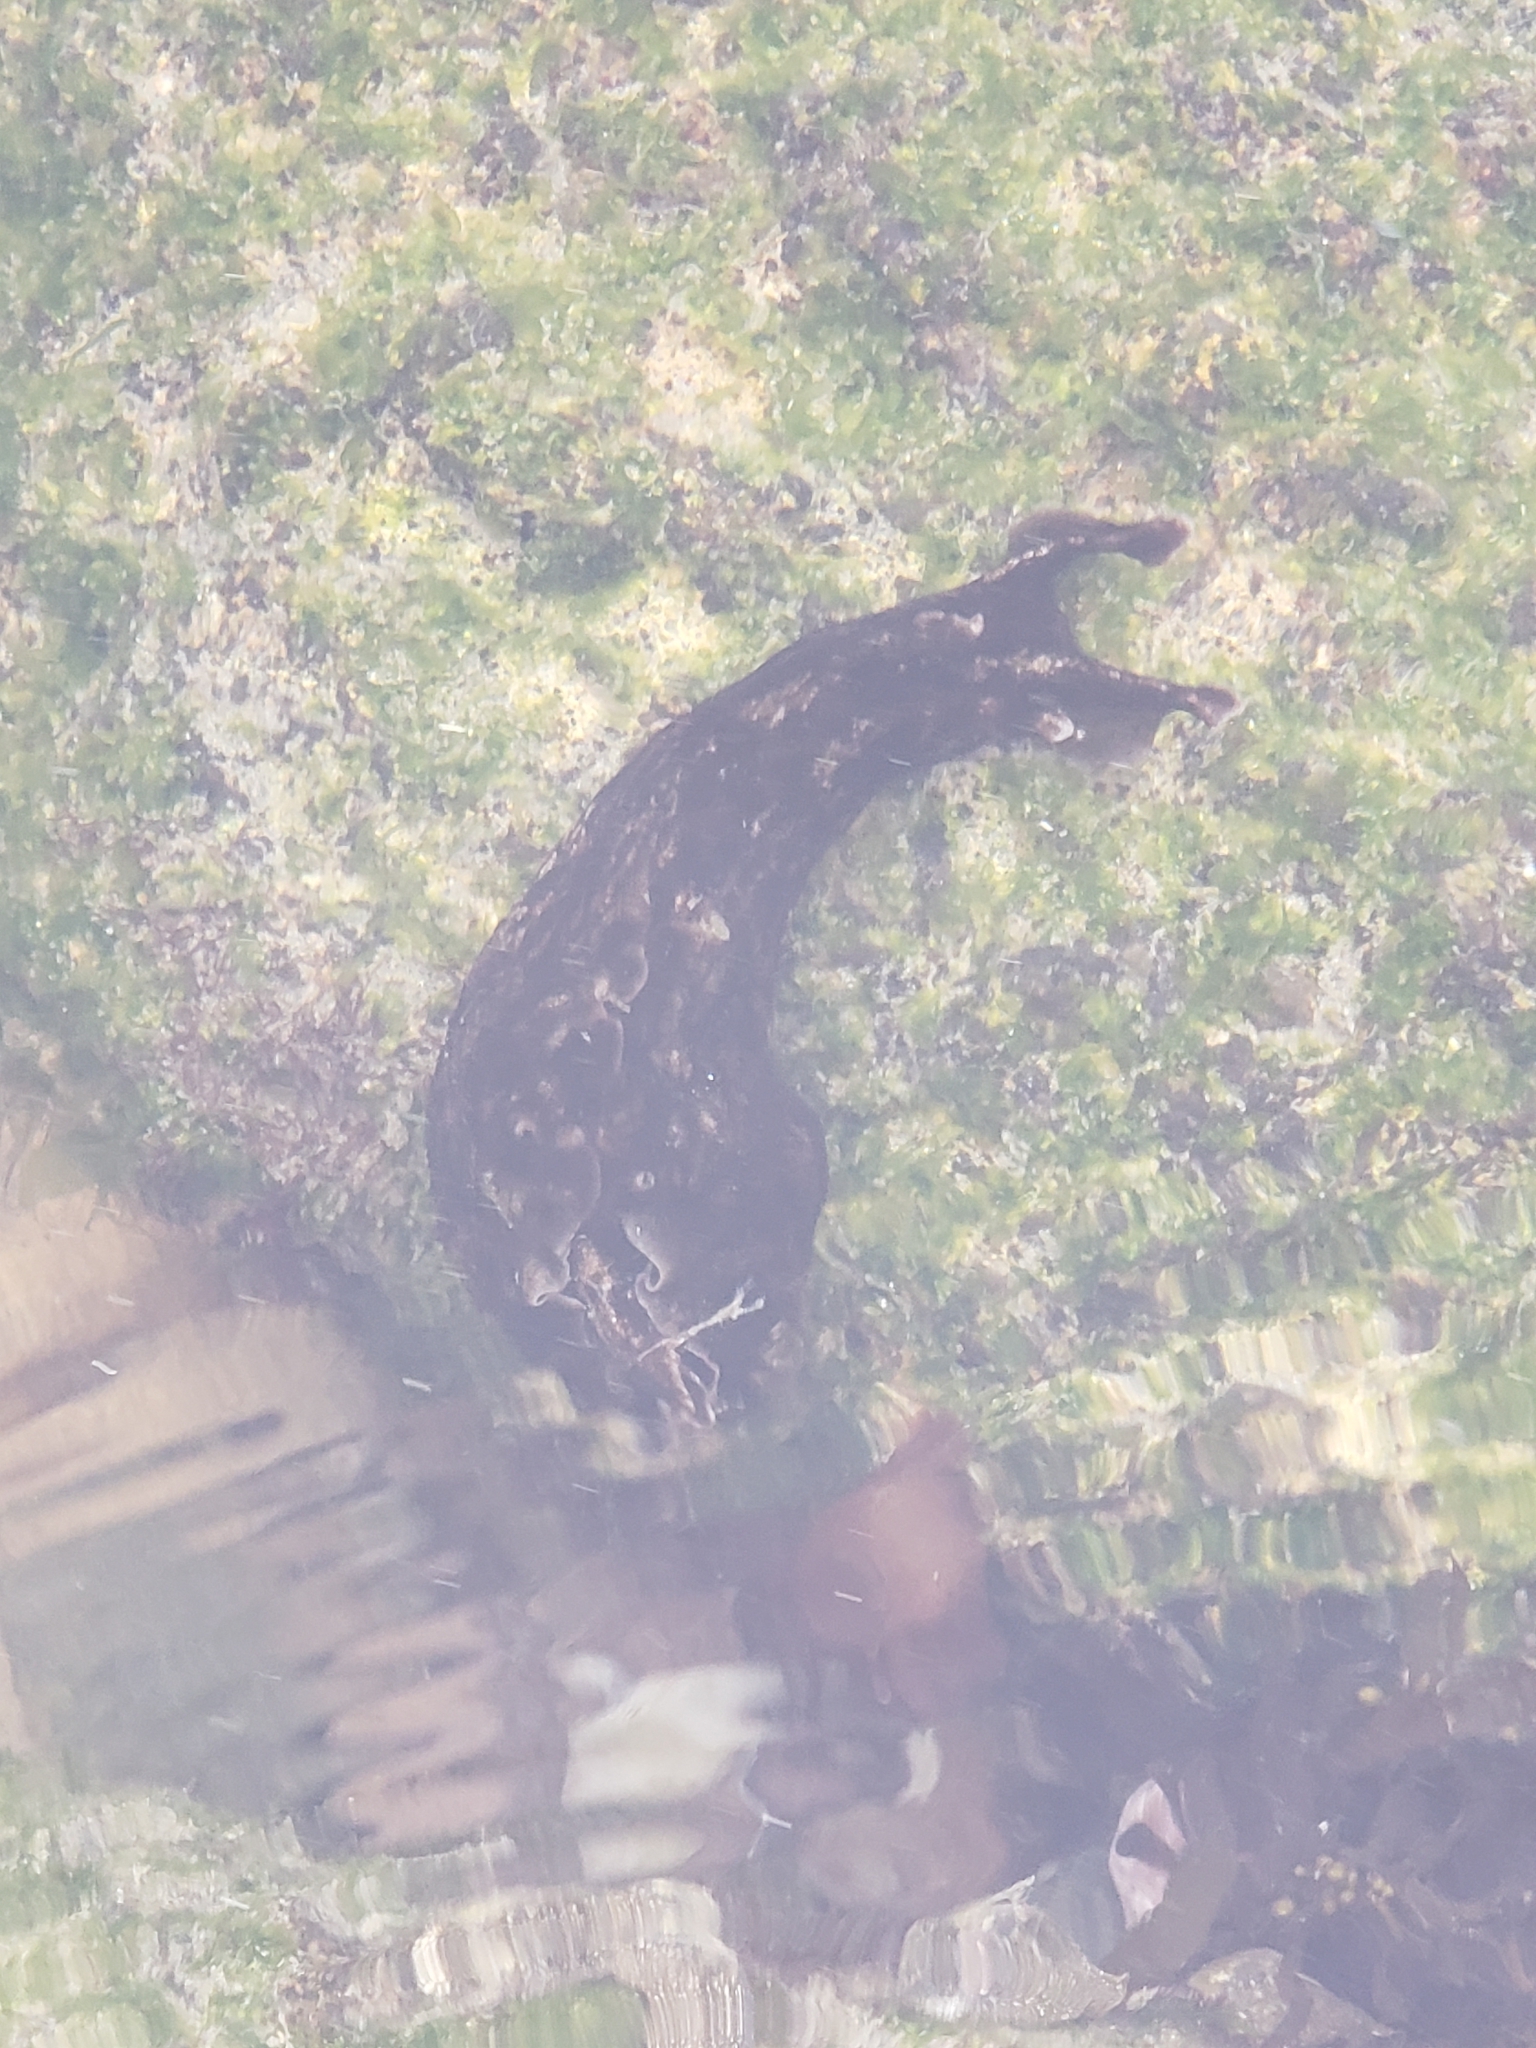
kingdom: Animalia
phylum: Mollusca
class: Gastropoda
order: Aplysiida
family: Aplysiidae
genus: Aplysia
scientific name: Aplysia californica
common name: California seahare
